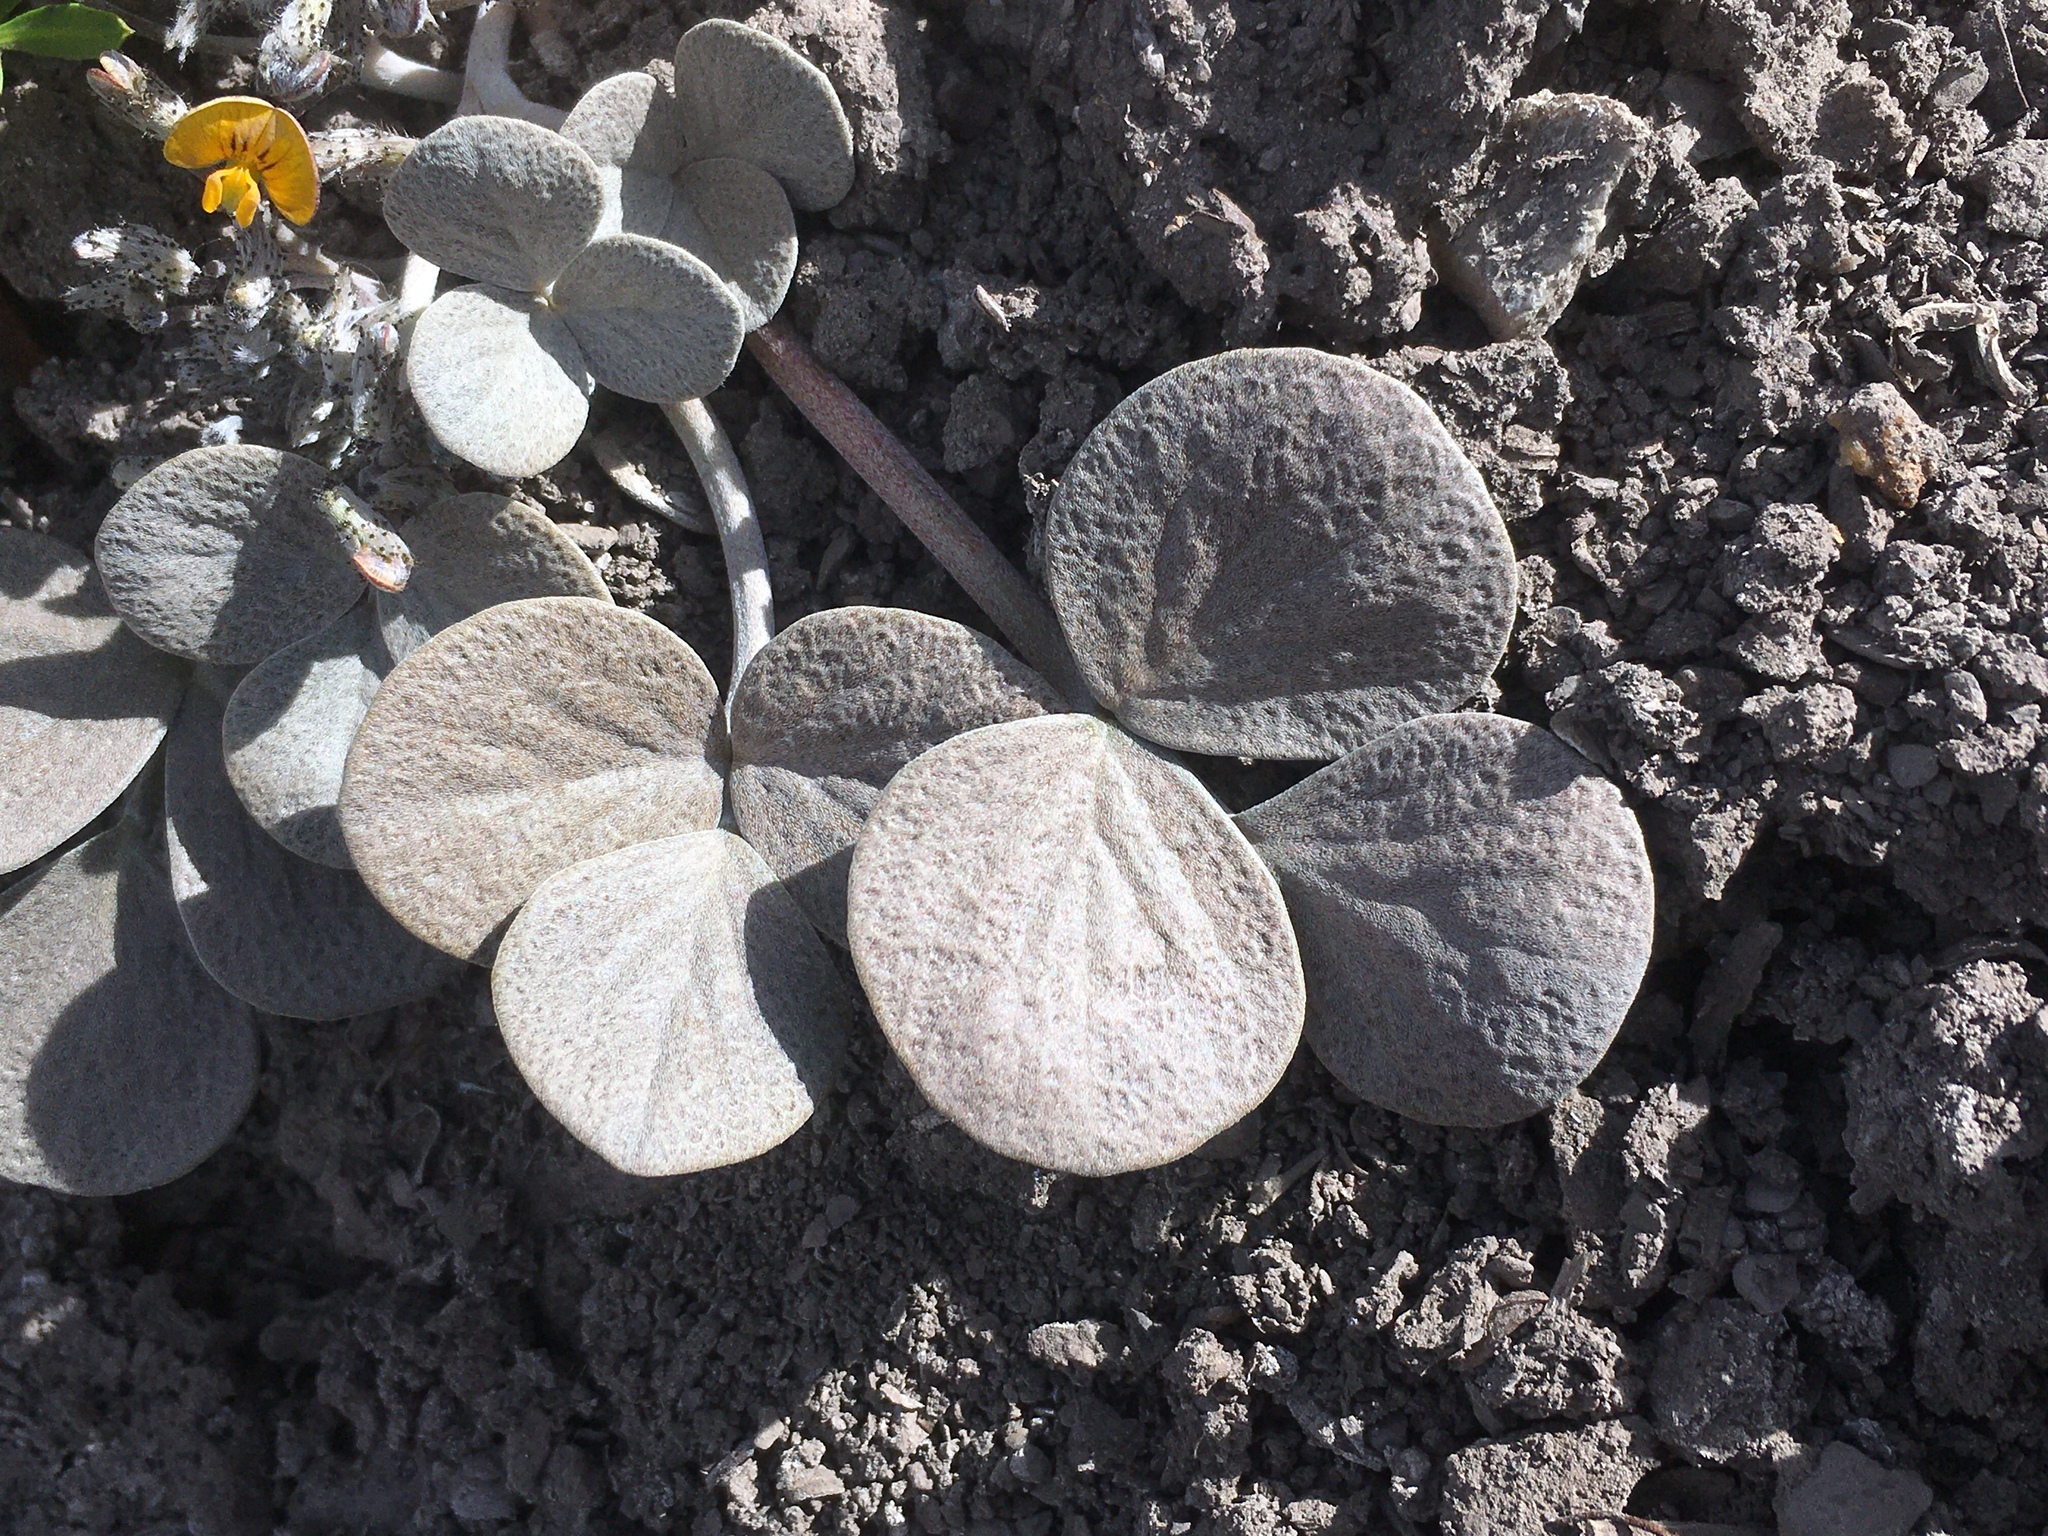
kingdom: Plantae
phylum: Tracheophyta
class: Magnoliopsida
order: Fabales
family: Fabaceae
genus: Adesmia
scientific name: Adesmia trifoliolata
